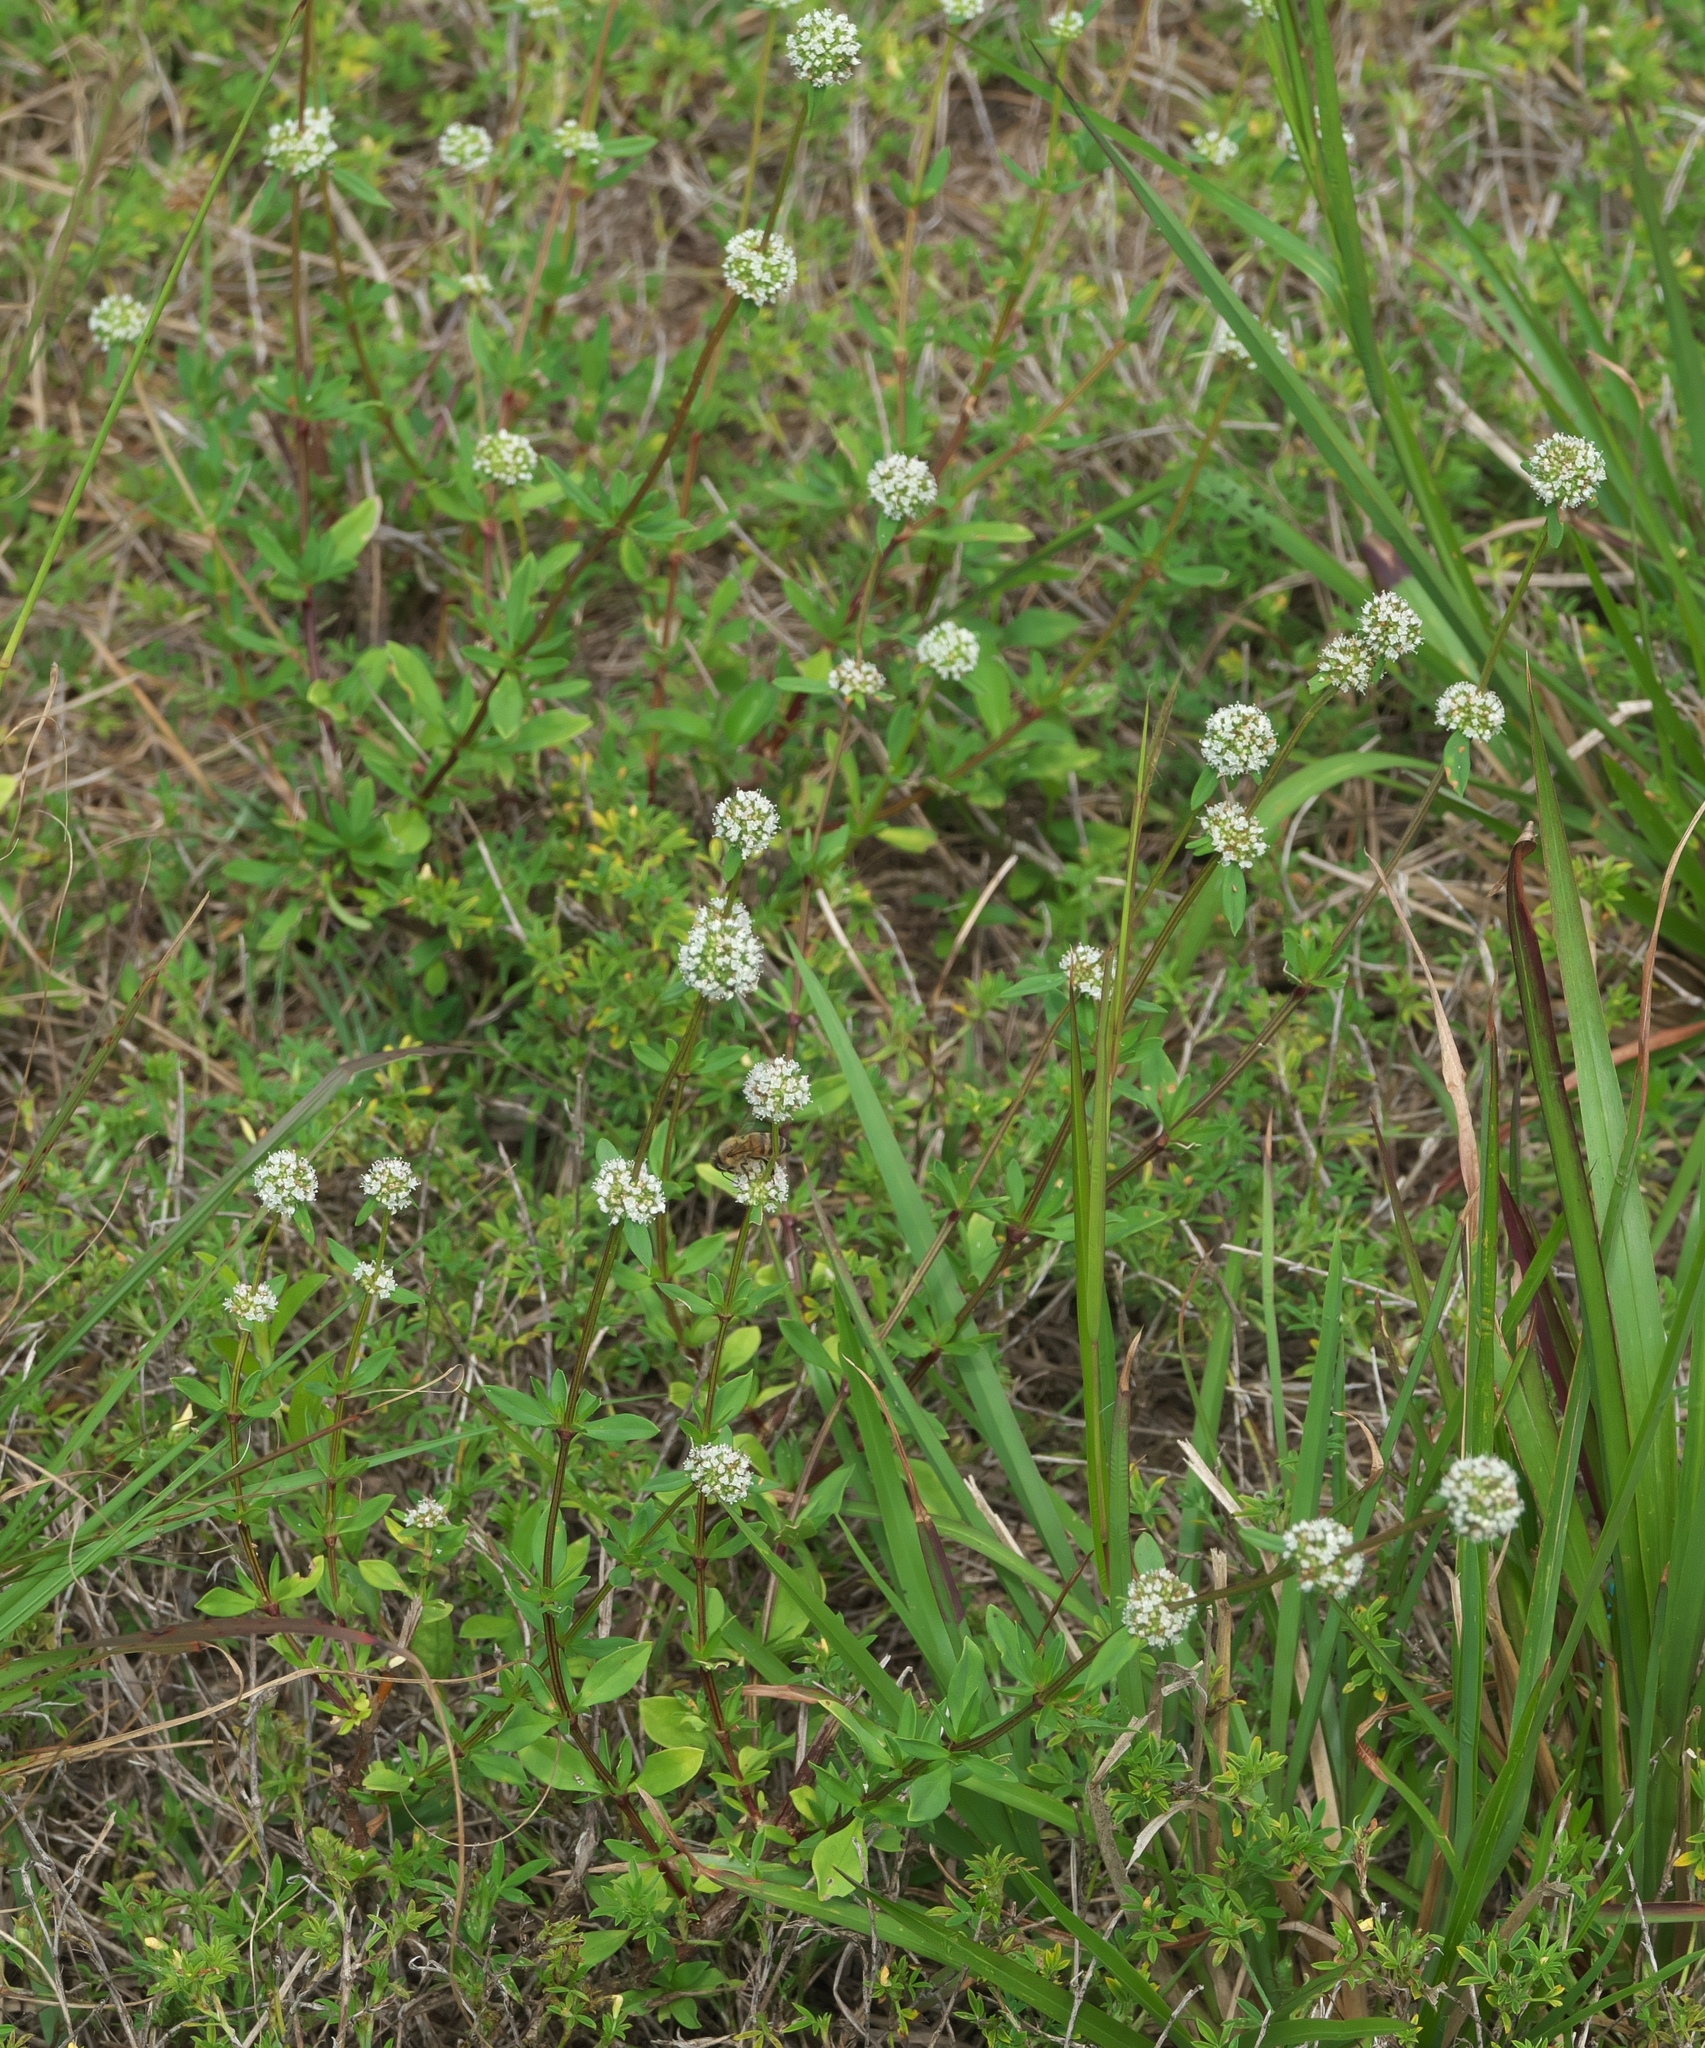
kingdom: Plantae
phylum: Tracheophyta
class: Magnoliopsida
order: Gentianales
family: Rubiaceae
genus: Spermacoce
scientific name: Spermacoce verticillata
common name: Shrubby false buttonweed
